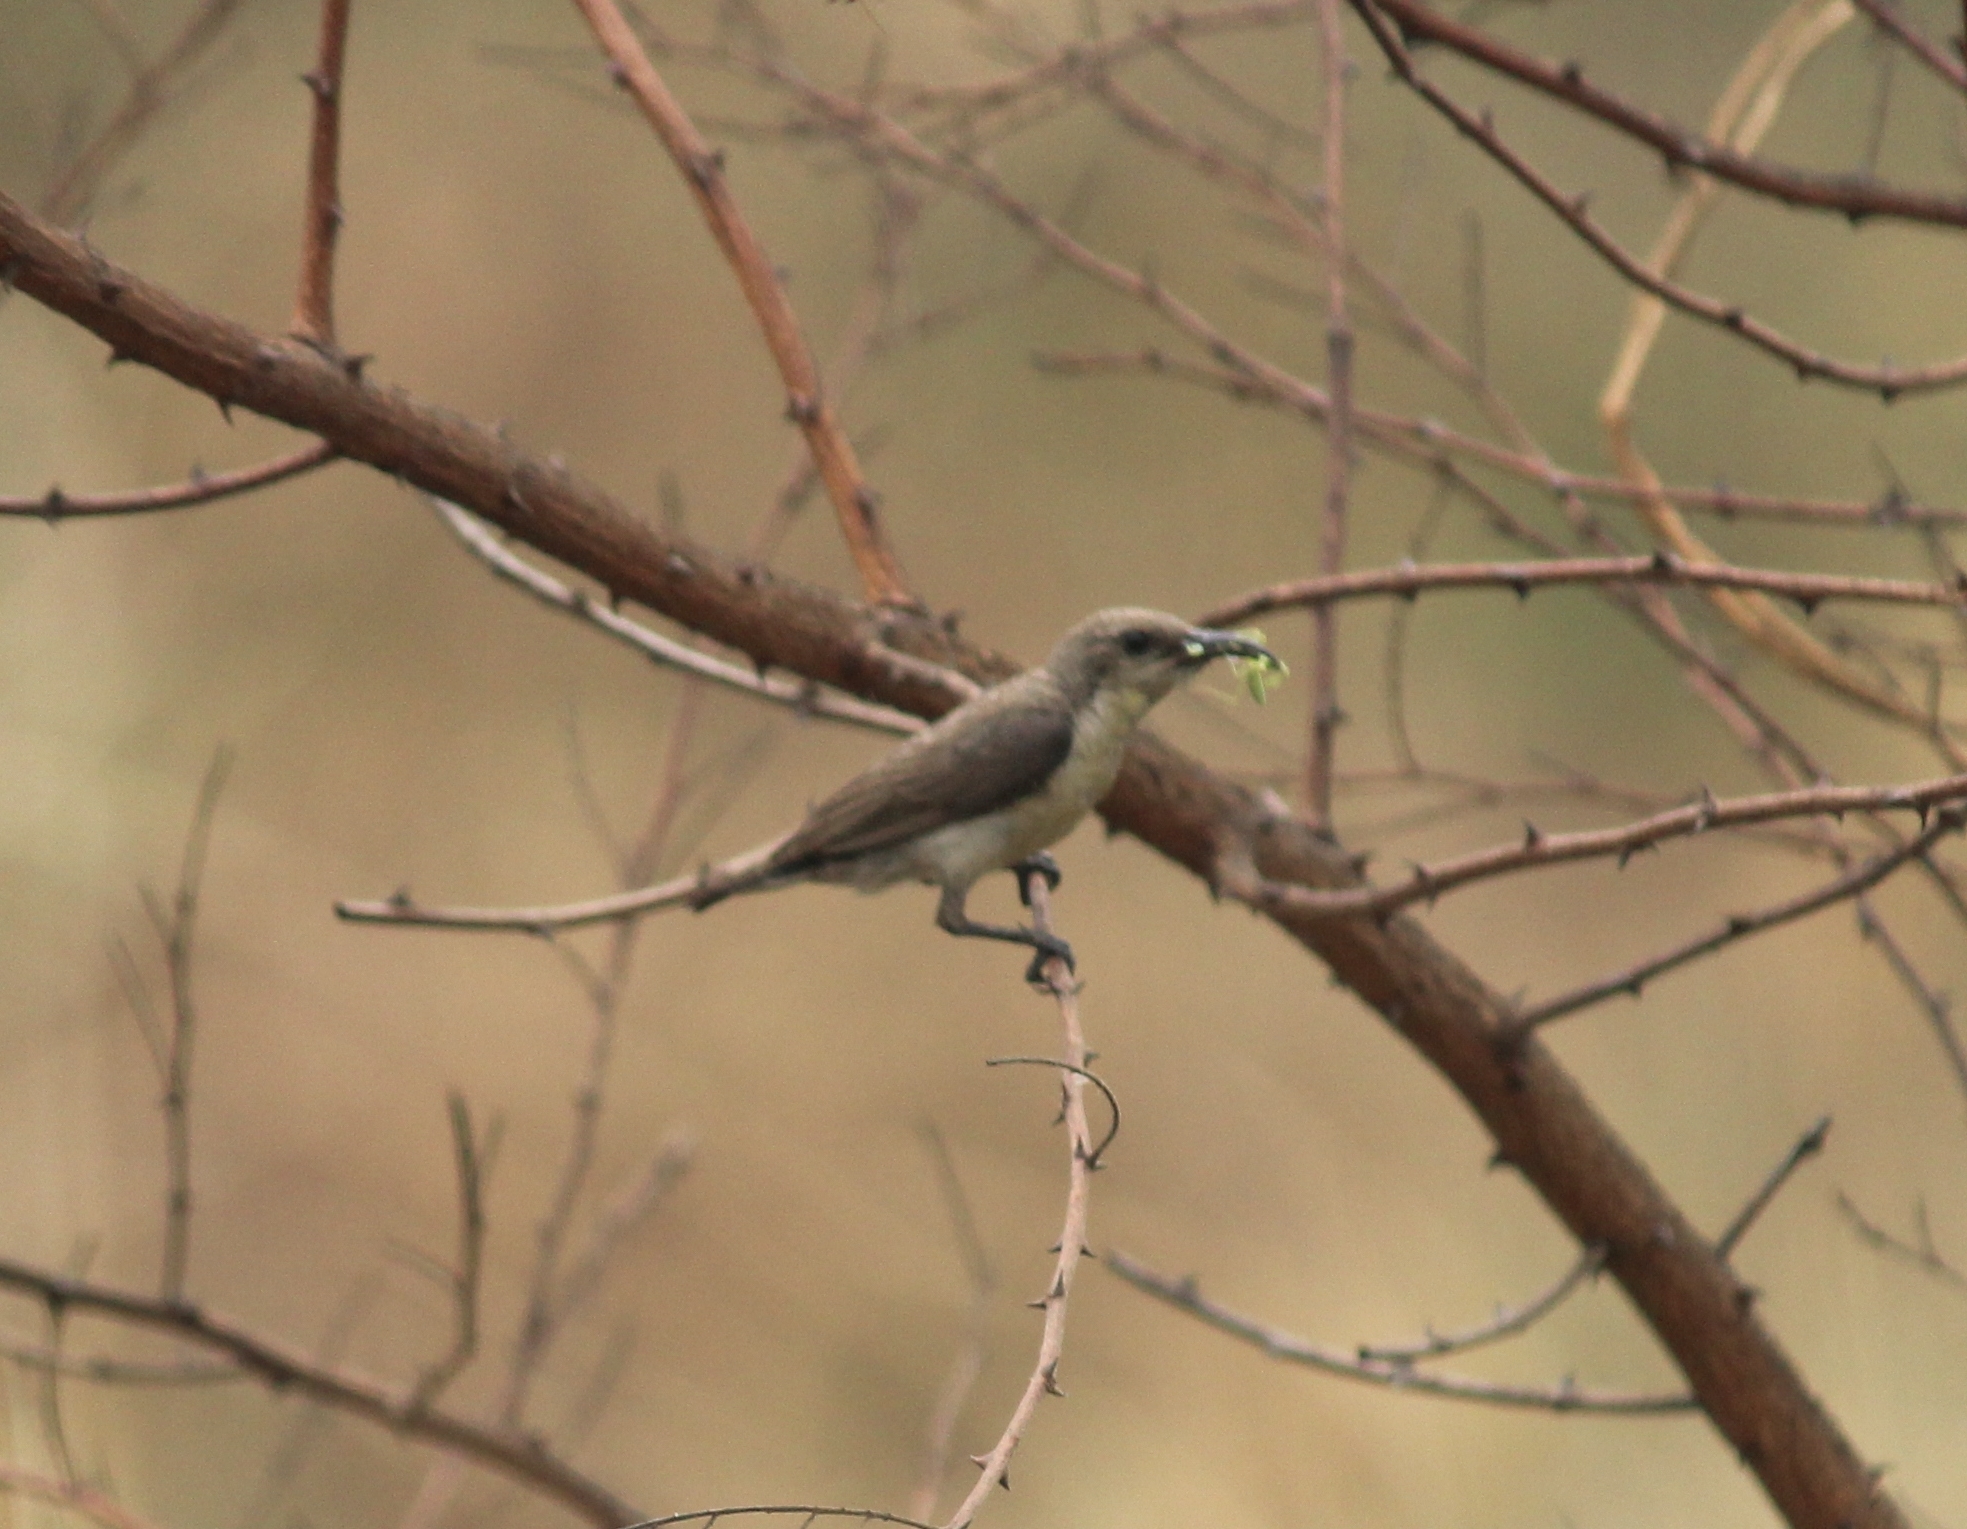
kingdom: Animalia
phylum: Chordata
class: Aves
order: Passeriformes
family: Nectariniidae
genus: Cinnyris
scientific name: Cinnyris asiaticus
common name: Purple sunbird
